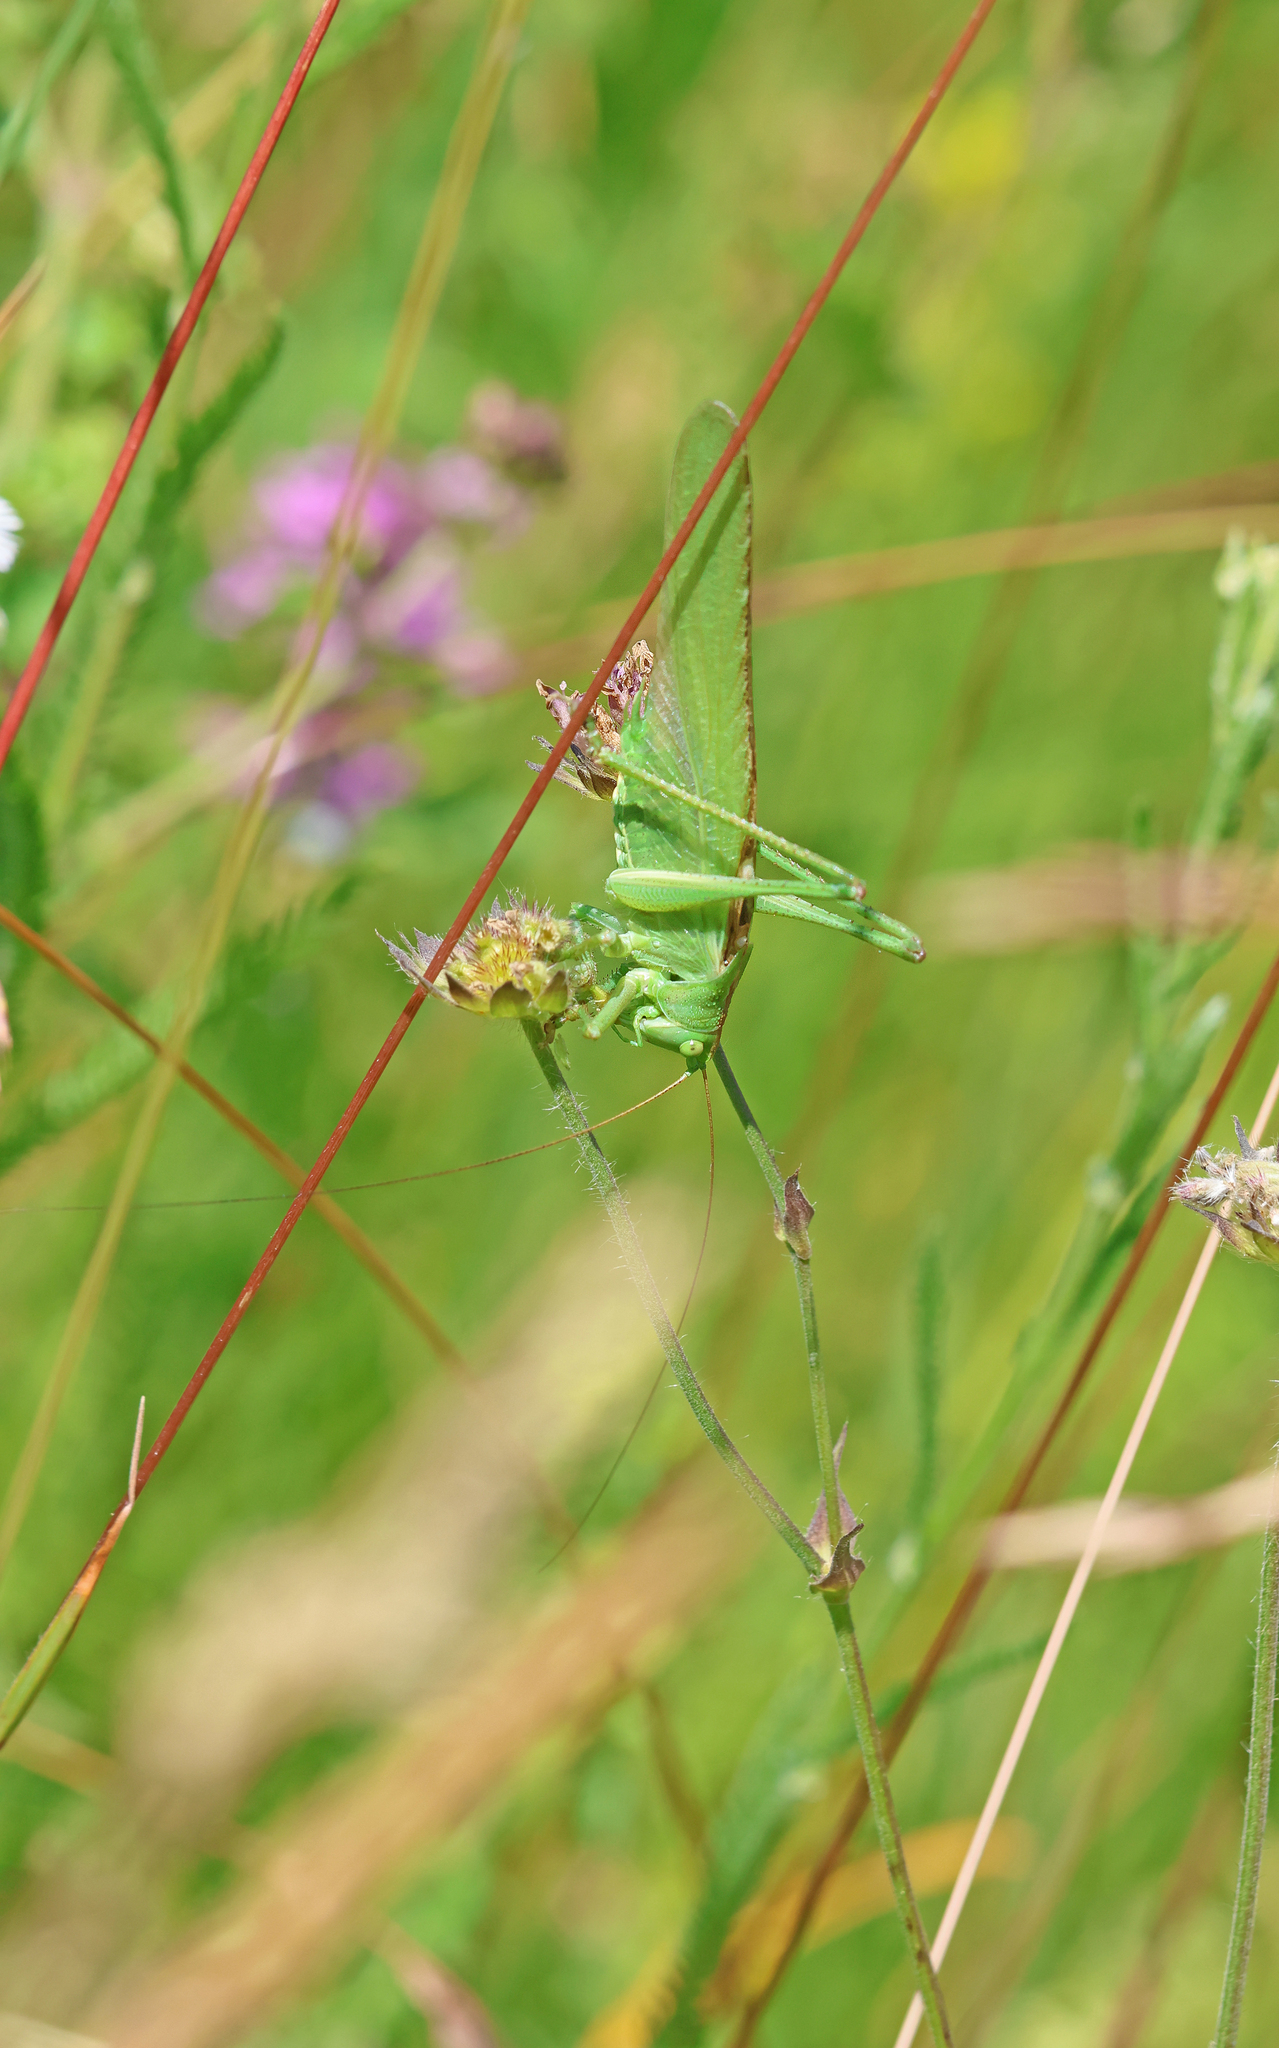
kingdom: Animalia
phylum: Arthropoda
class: Insecta
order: Orthoptera
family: Tettigoniidae
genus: Tettigonia
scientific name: Tettigonia viridissima
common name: Great green bush-cricket
